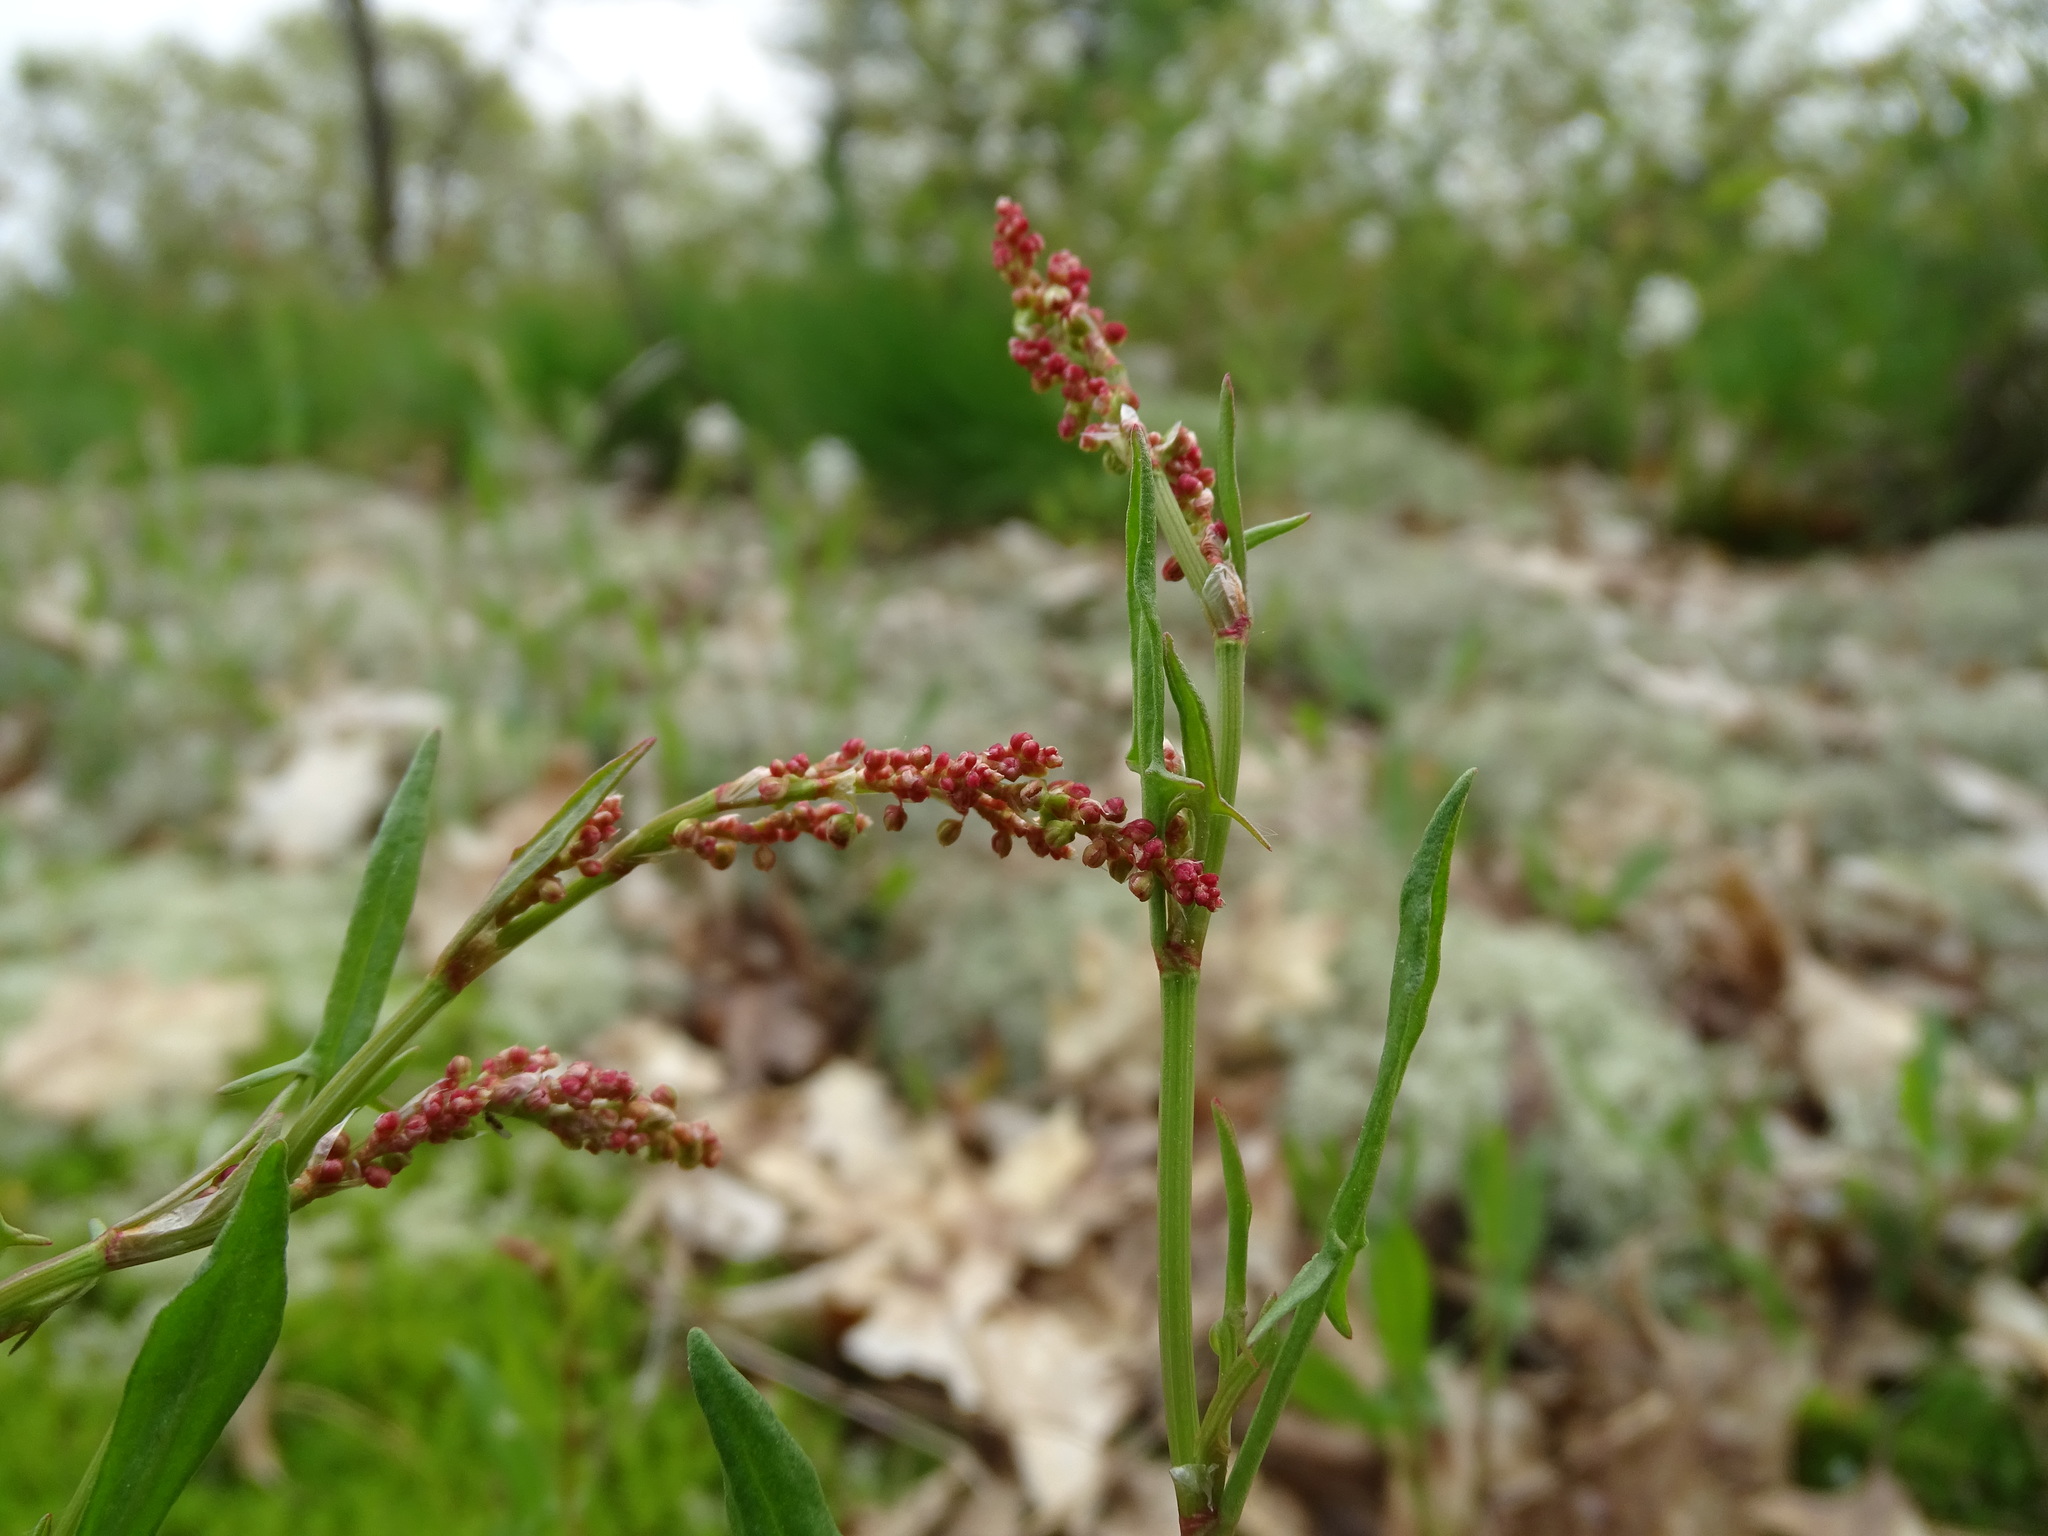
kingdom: Plantae
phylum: Tracheophyta
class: Magnoliopsida
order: Caryophyllales
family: Polygonaceae
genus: Rumex
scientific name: Rumex acetosella
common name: Common sheep sorrel
